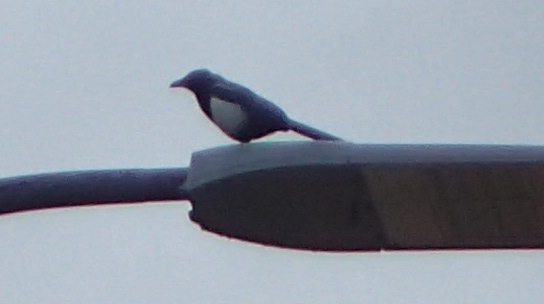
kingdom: Animalia
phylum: Chordata
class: Aves
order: Passeriformes
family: Corvidae
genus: Pica
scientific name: Pica hudsonia
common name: Black-billed magpie
